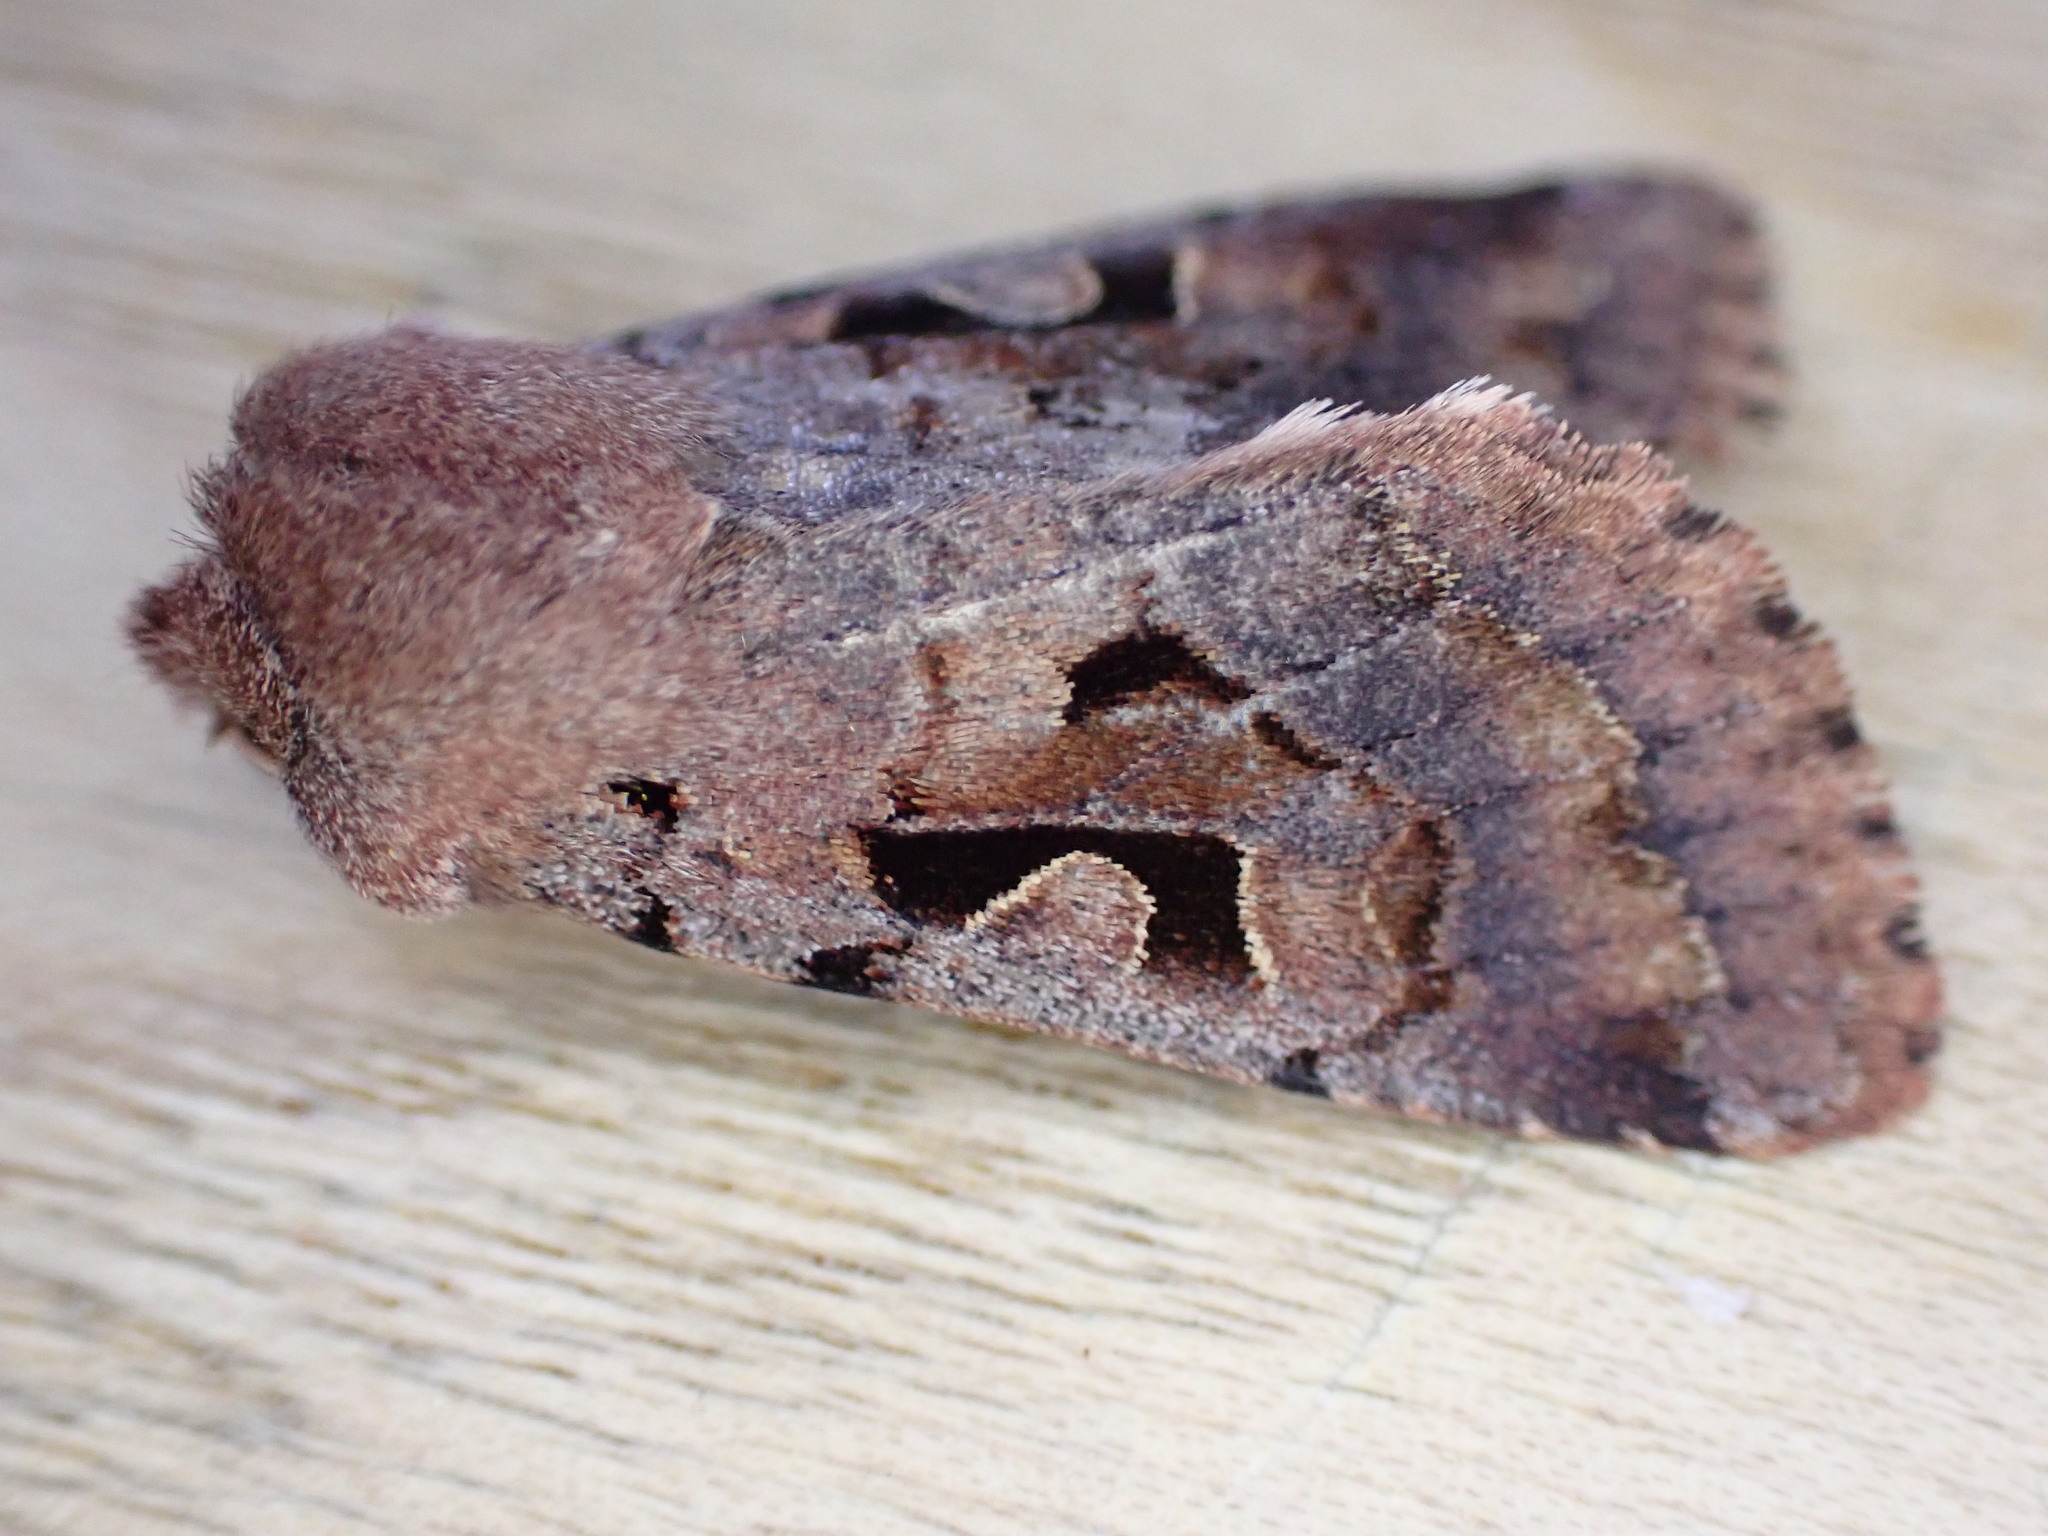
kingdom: Animalia
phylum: Arthropoda
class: Insecta
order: Lepidoptera
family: Noctuidae
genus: Orthosia
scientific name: Orthosia gothica
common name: Hebrew character
